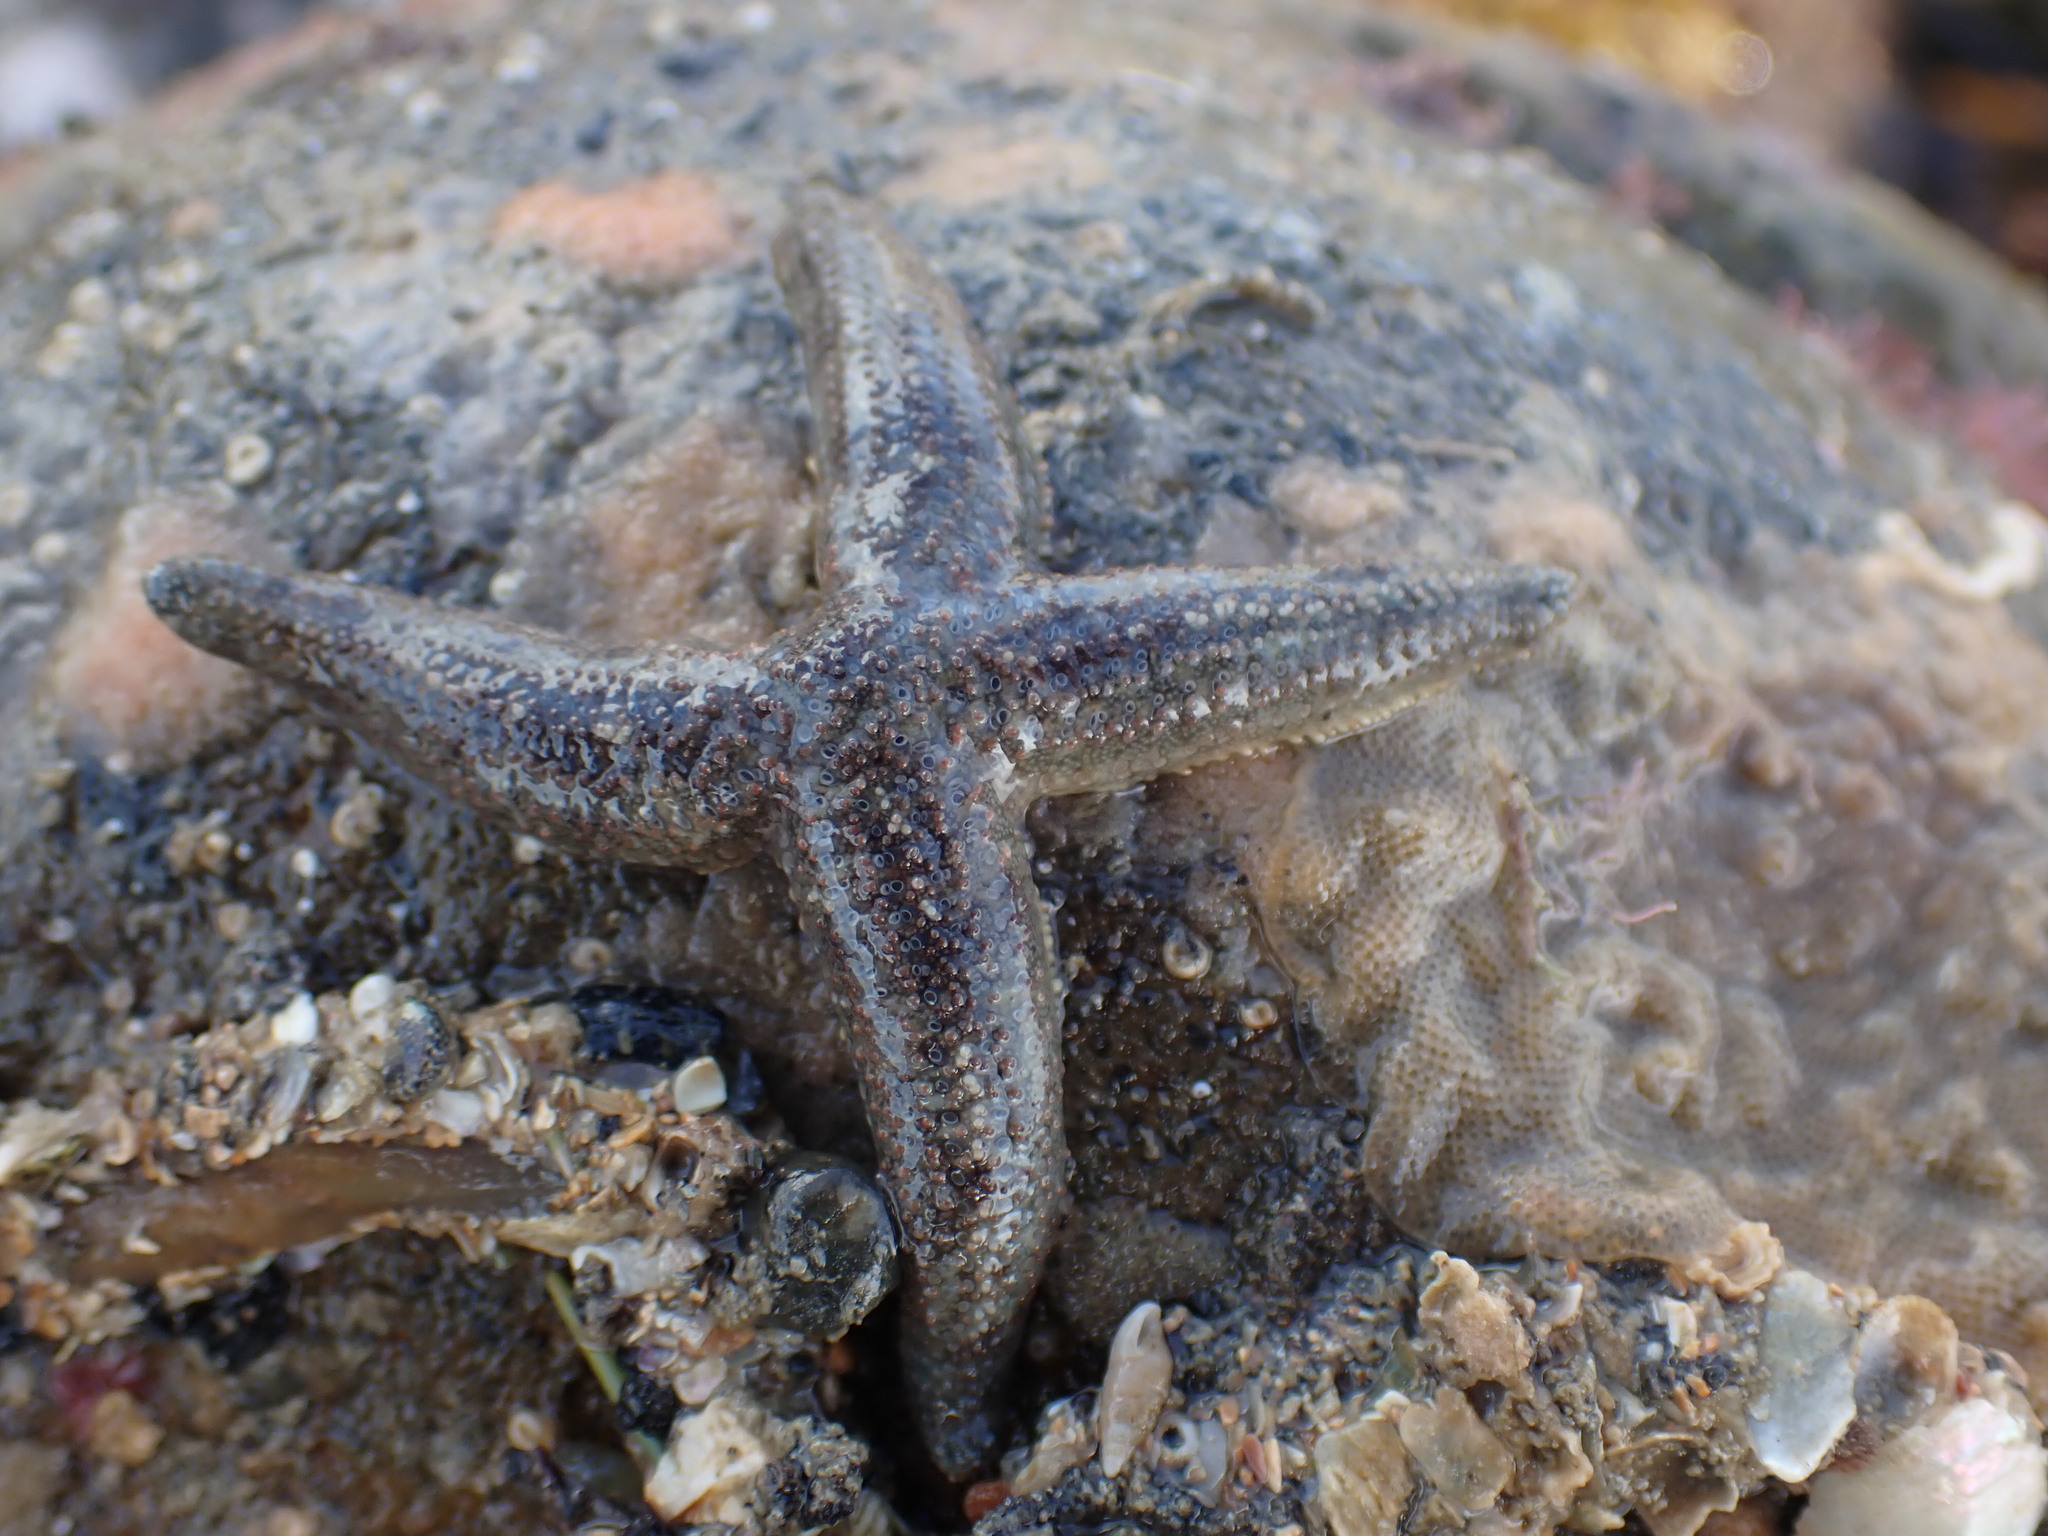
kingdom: Animalia
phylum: Echinodermata
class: Asteroidea
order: Forcipulatida
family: Stichasteridae
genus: Allostichaster
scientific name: Allostichaster polyplax
